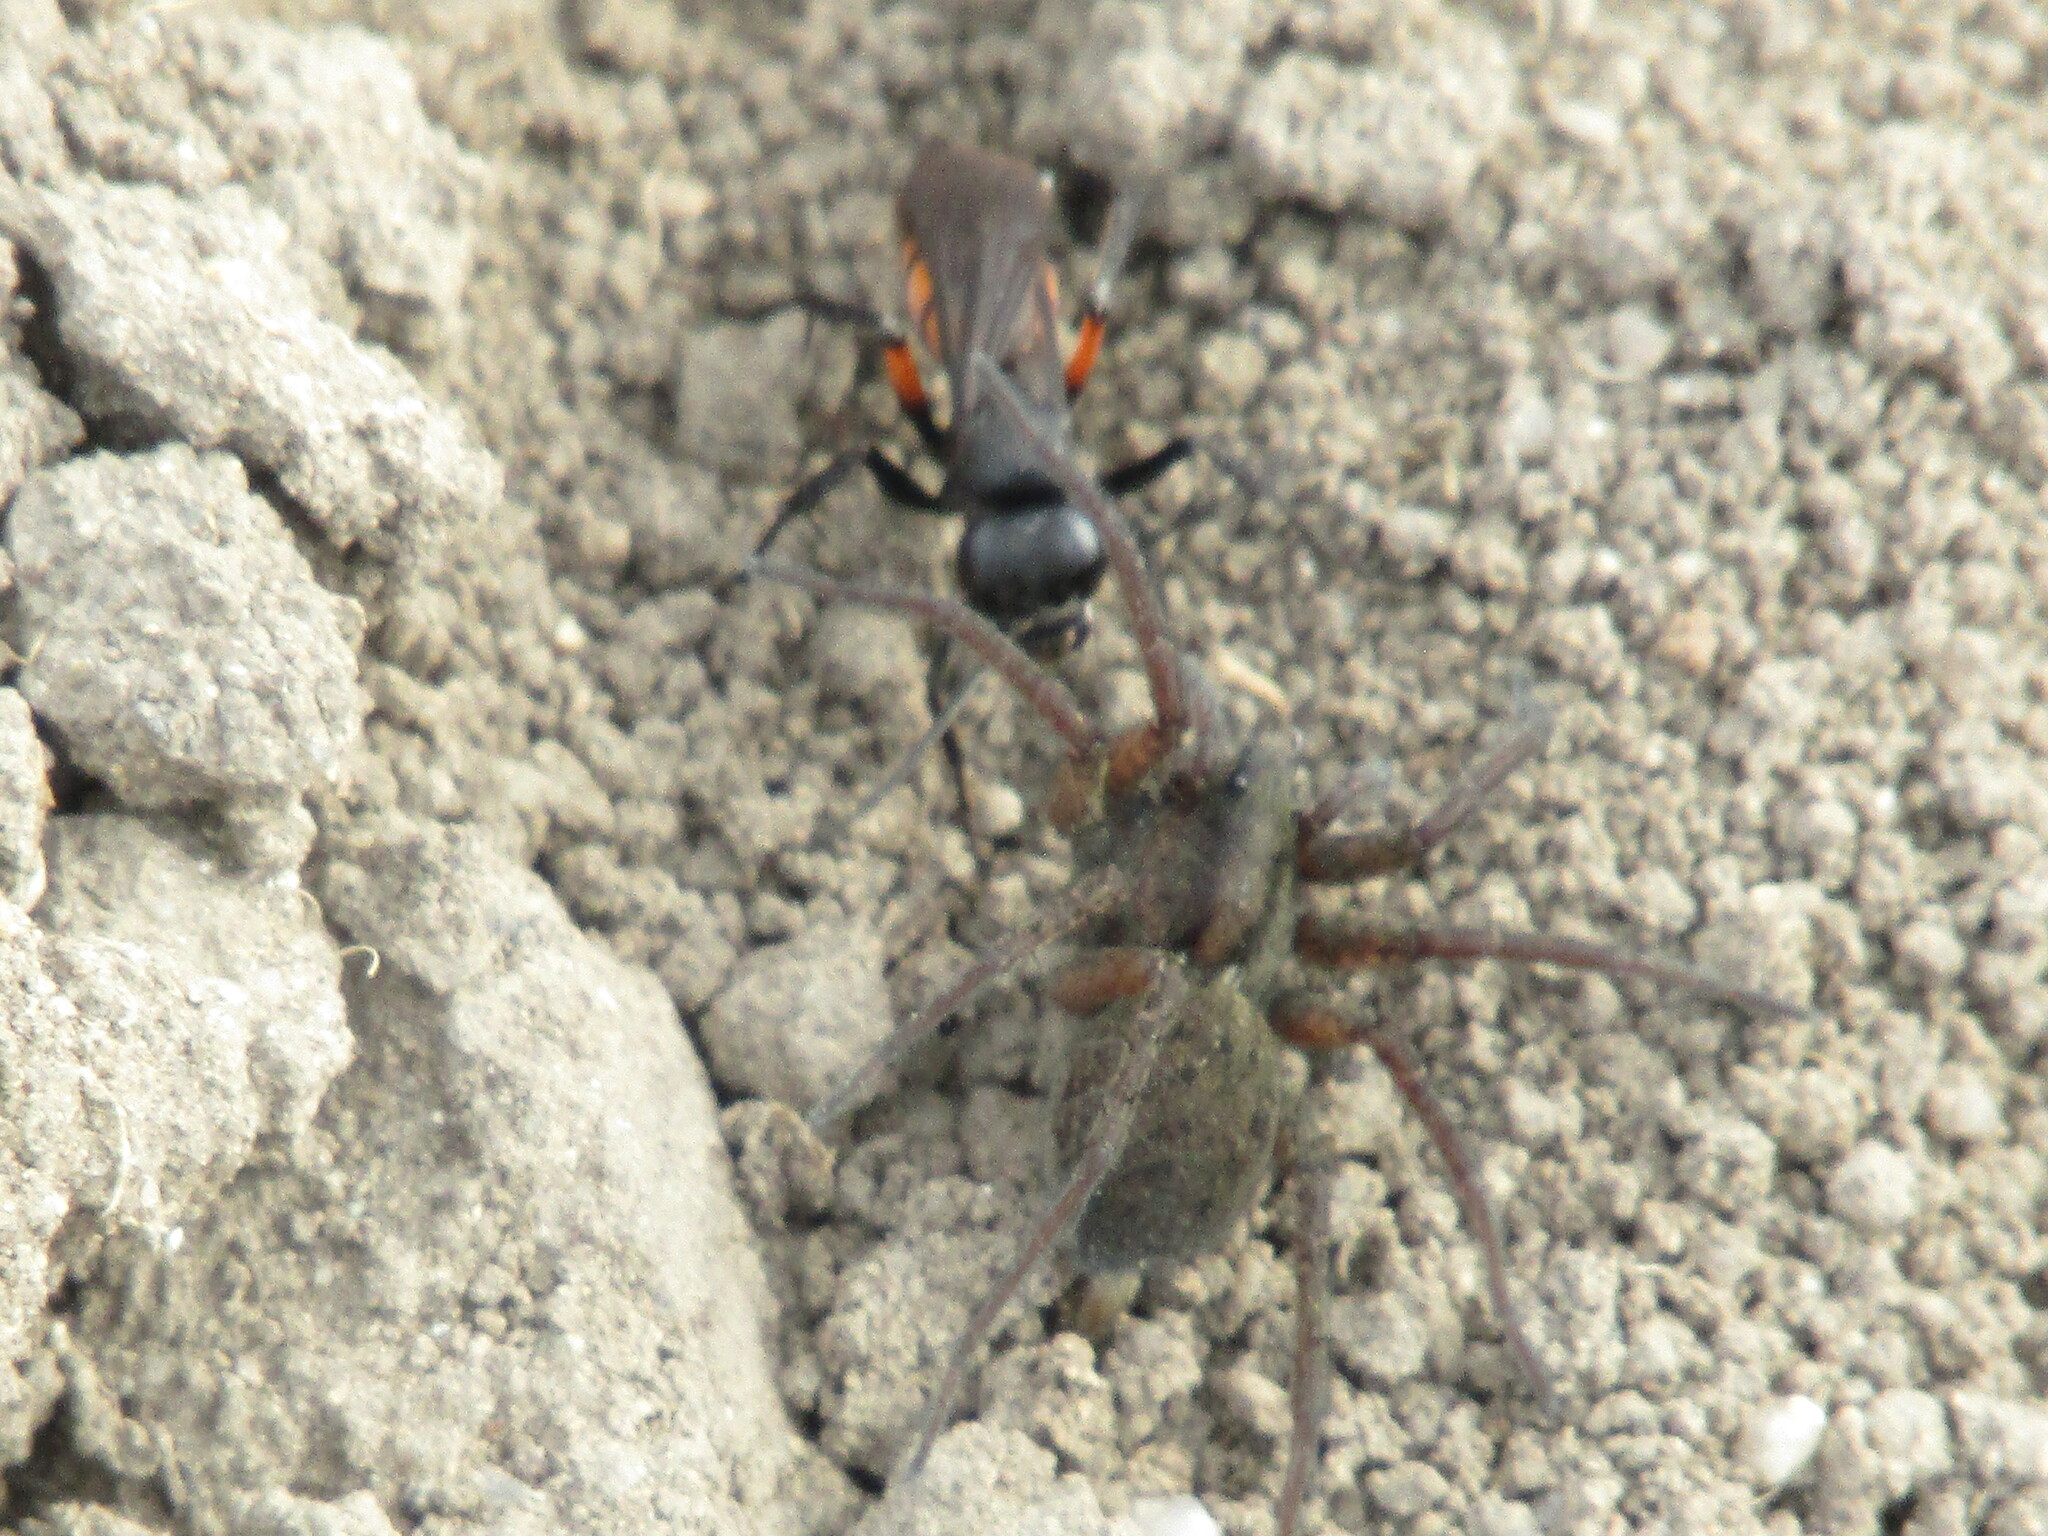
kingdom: Animalia
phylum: Arthropoda
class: Insecta
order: Hymenoptera
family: Pompilidae
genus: Anoplius
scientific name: Anoplius viaticus
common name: Black banded spider wasp
